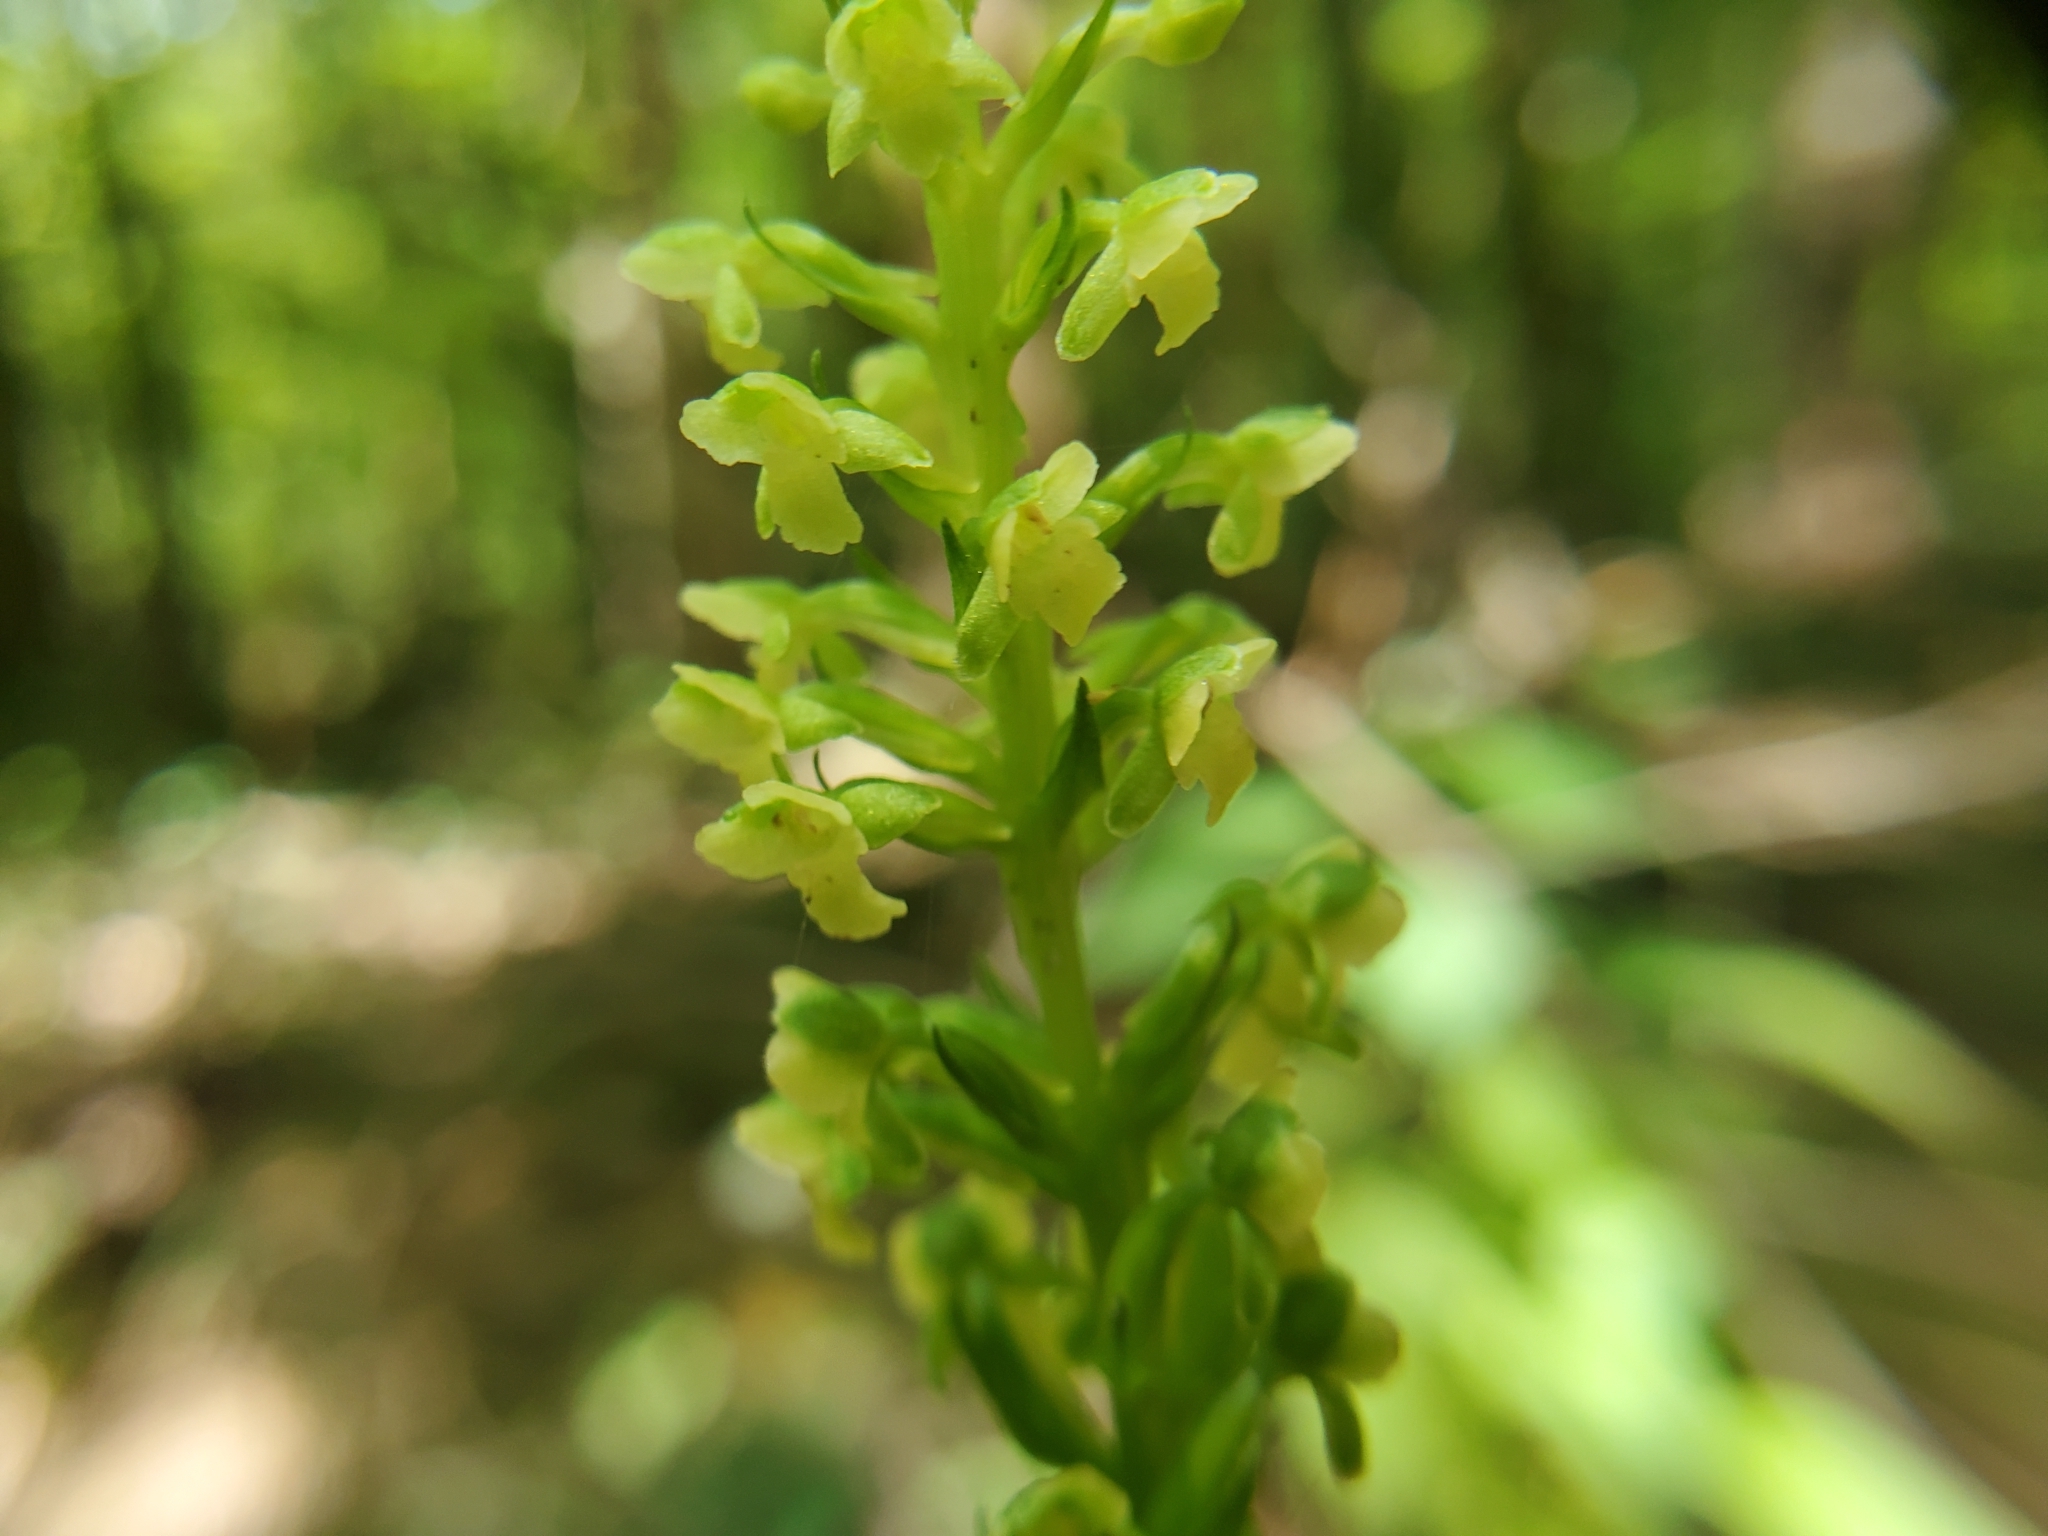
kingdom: Plantae
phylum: Tracheophyta
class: Liliopsida
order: Asparagales
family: Orchidaceae
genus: Platanthera
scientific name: Platanthera flava
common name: Gypsy-spikes
